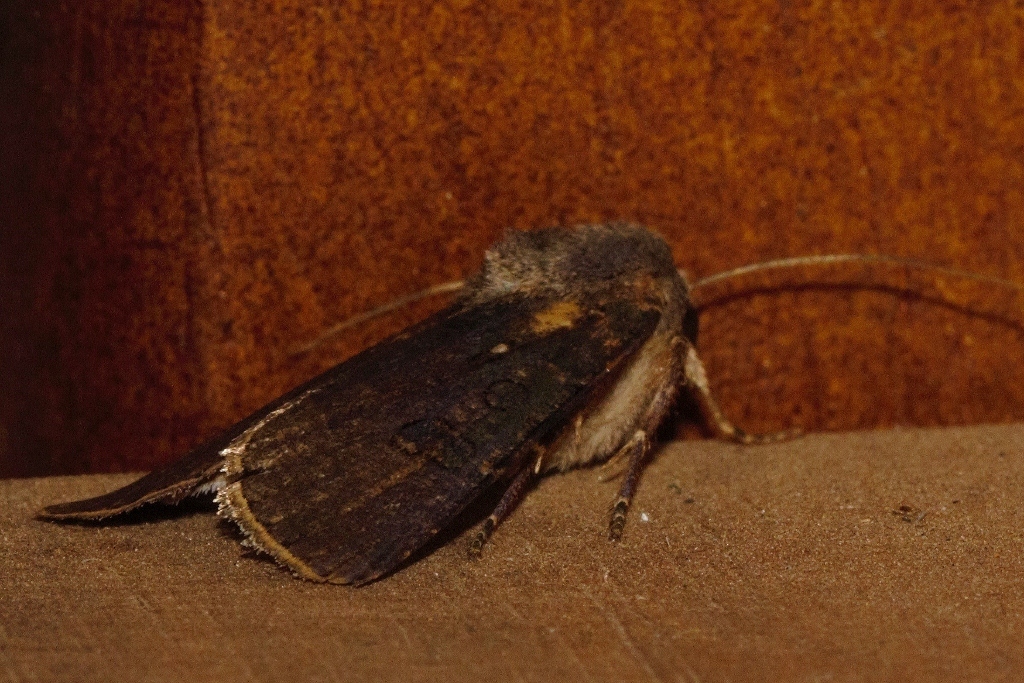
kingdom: Animalia
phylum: Arthropoda
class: Insecta
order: Lepidoptera
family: Noctuidae
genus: Agrotis
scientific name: Agrotis segetum
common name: Turnip moth
